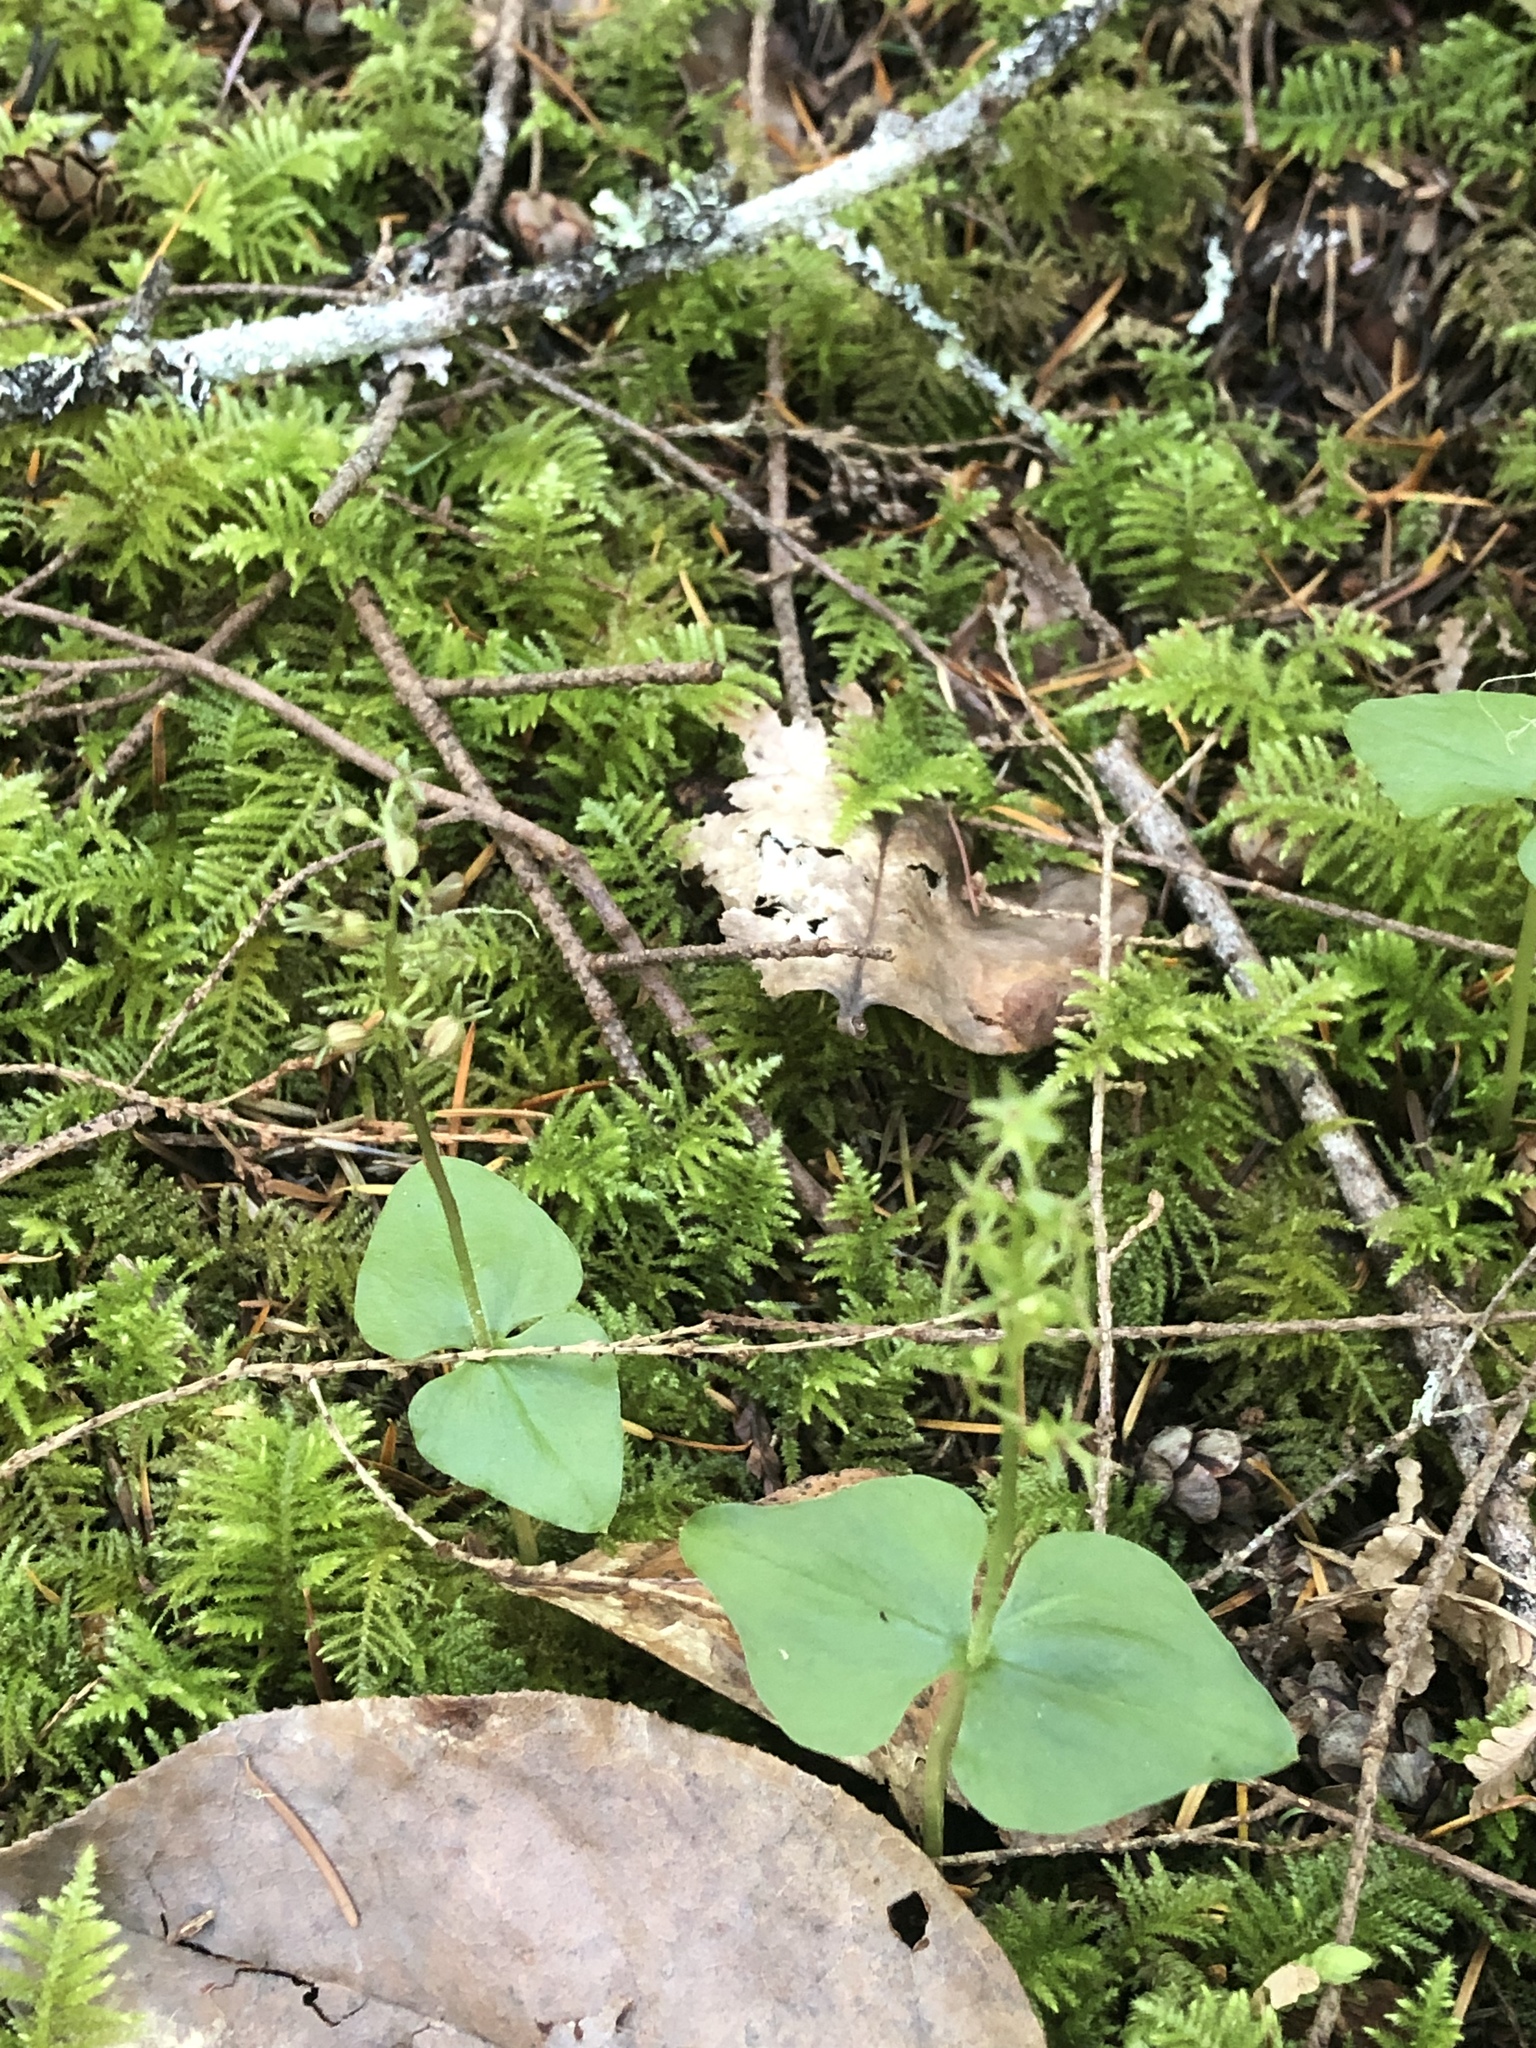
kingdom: Plantae
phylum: Tracheophyta
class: Liliopsida
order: Asparagales
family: Orchidaceae
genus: Neottia
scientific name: Neottia cordata
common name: Lesser twayblade
